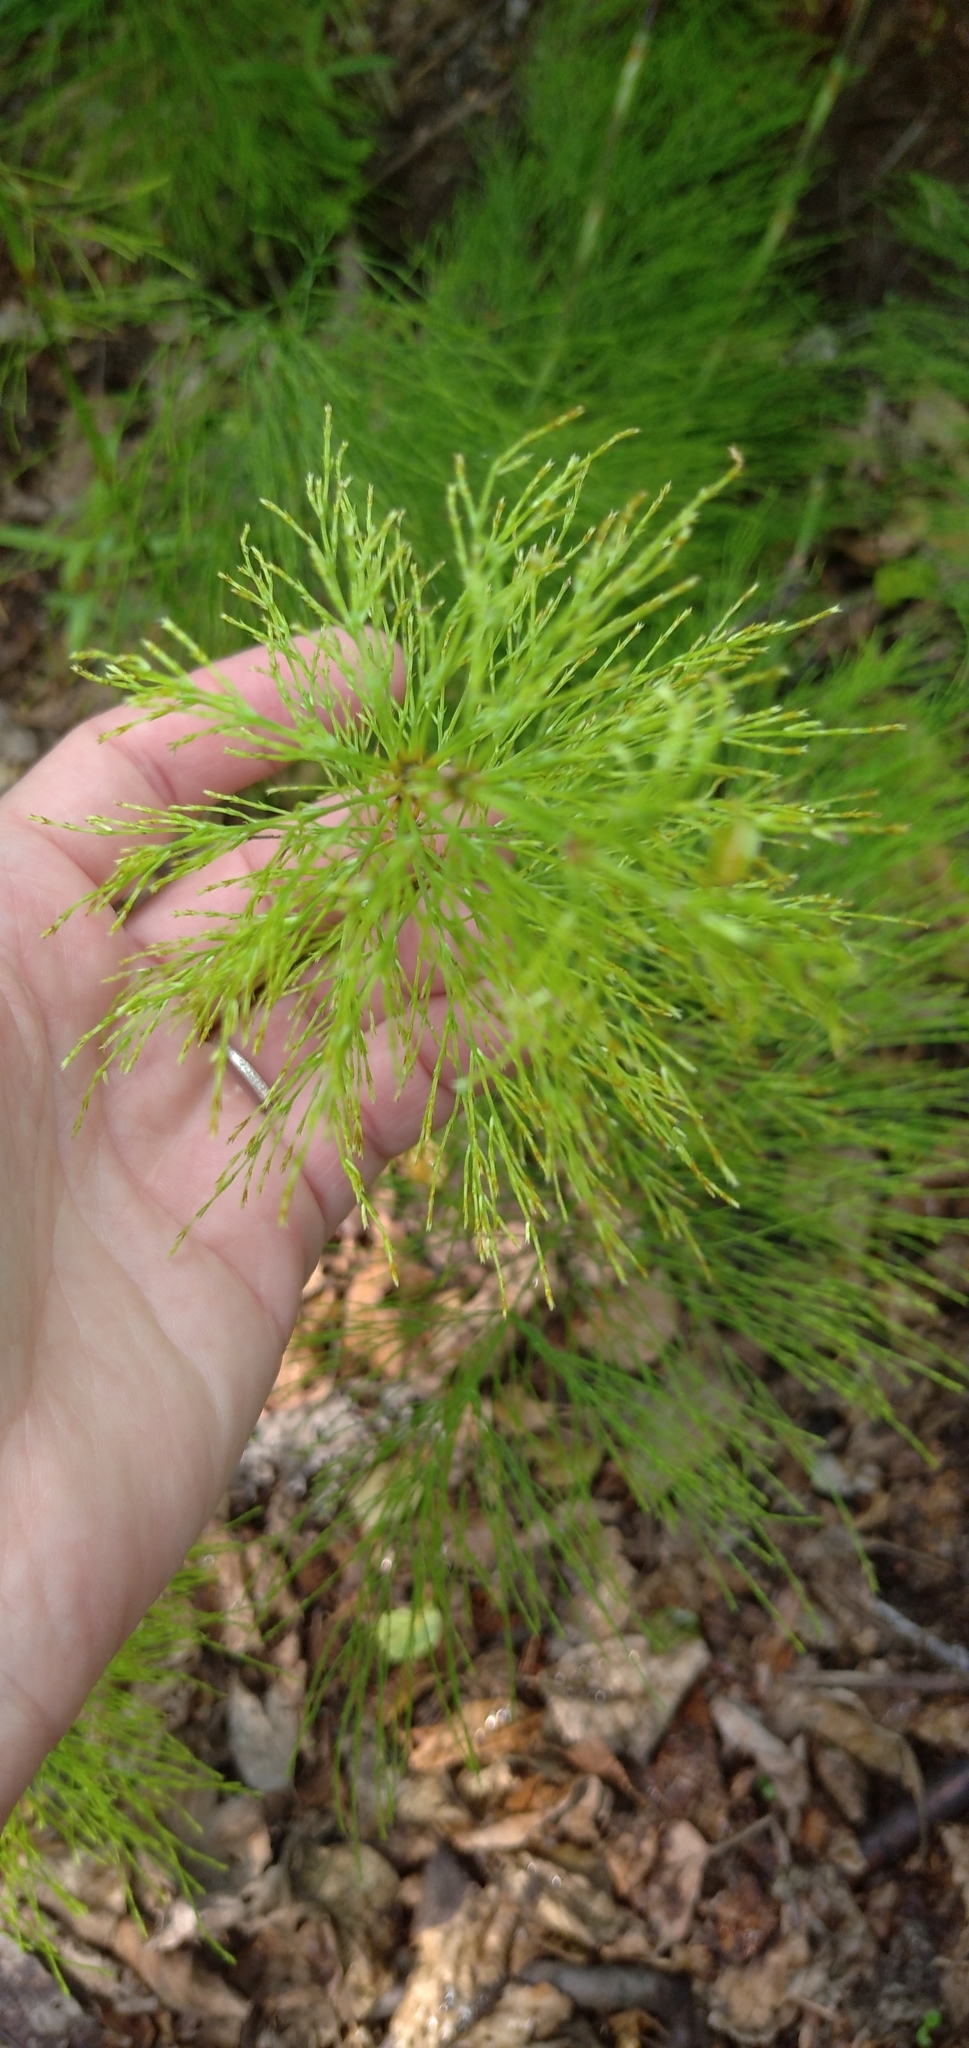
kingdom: Plantae
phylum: Tracheophyta
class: Polypodiopsida
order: Equisetales
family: Equisetaceae
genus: Equisetum
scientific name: Equisetum sylvaticum
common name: Wood horsetail
